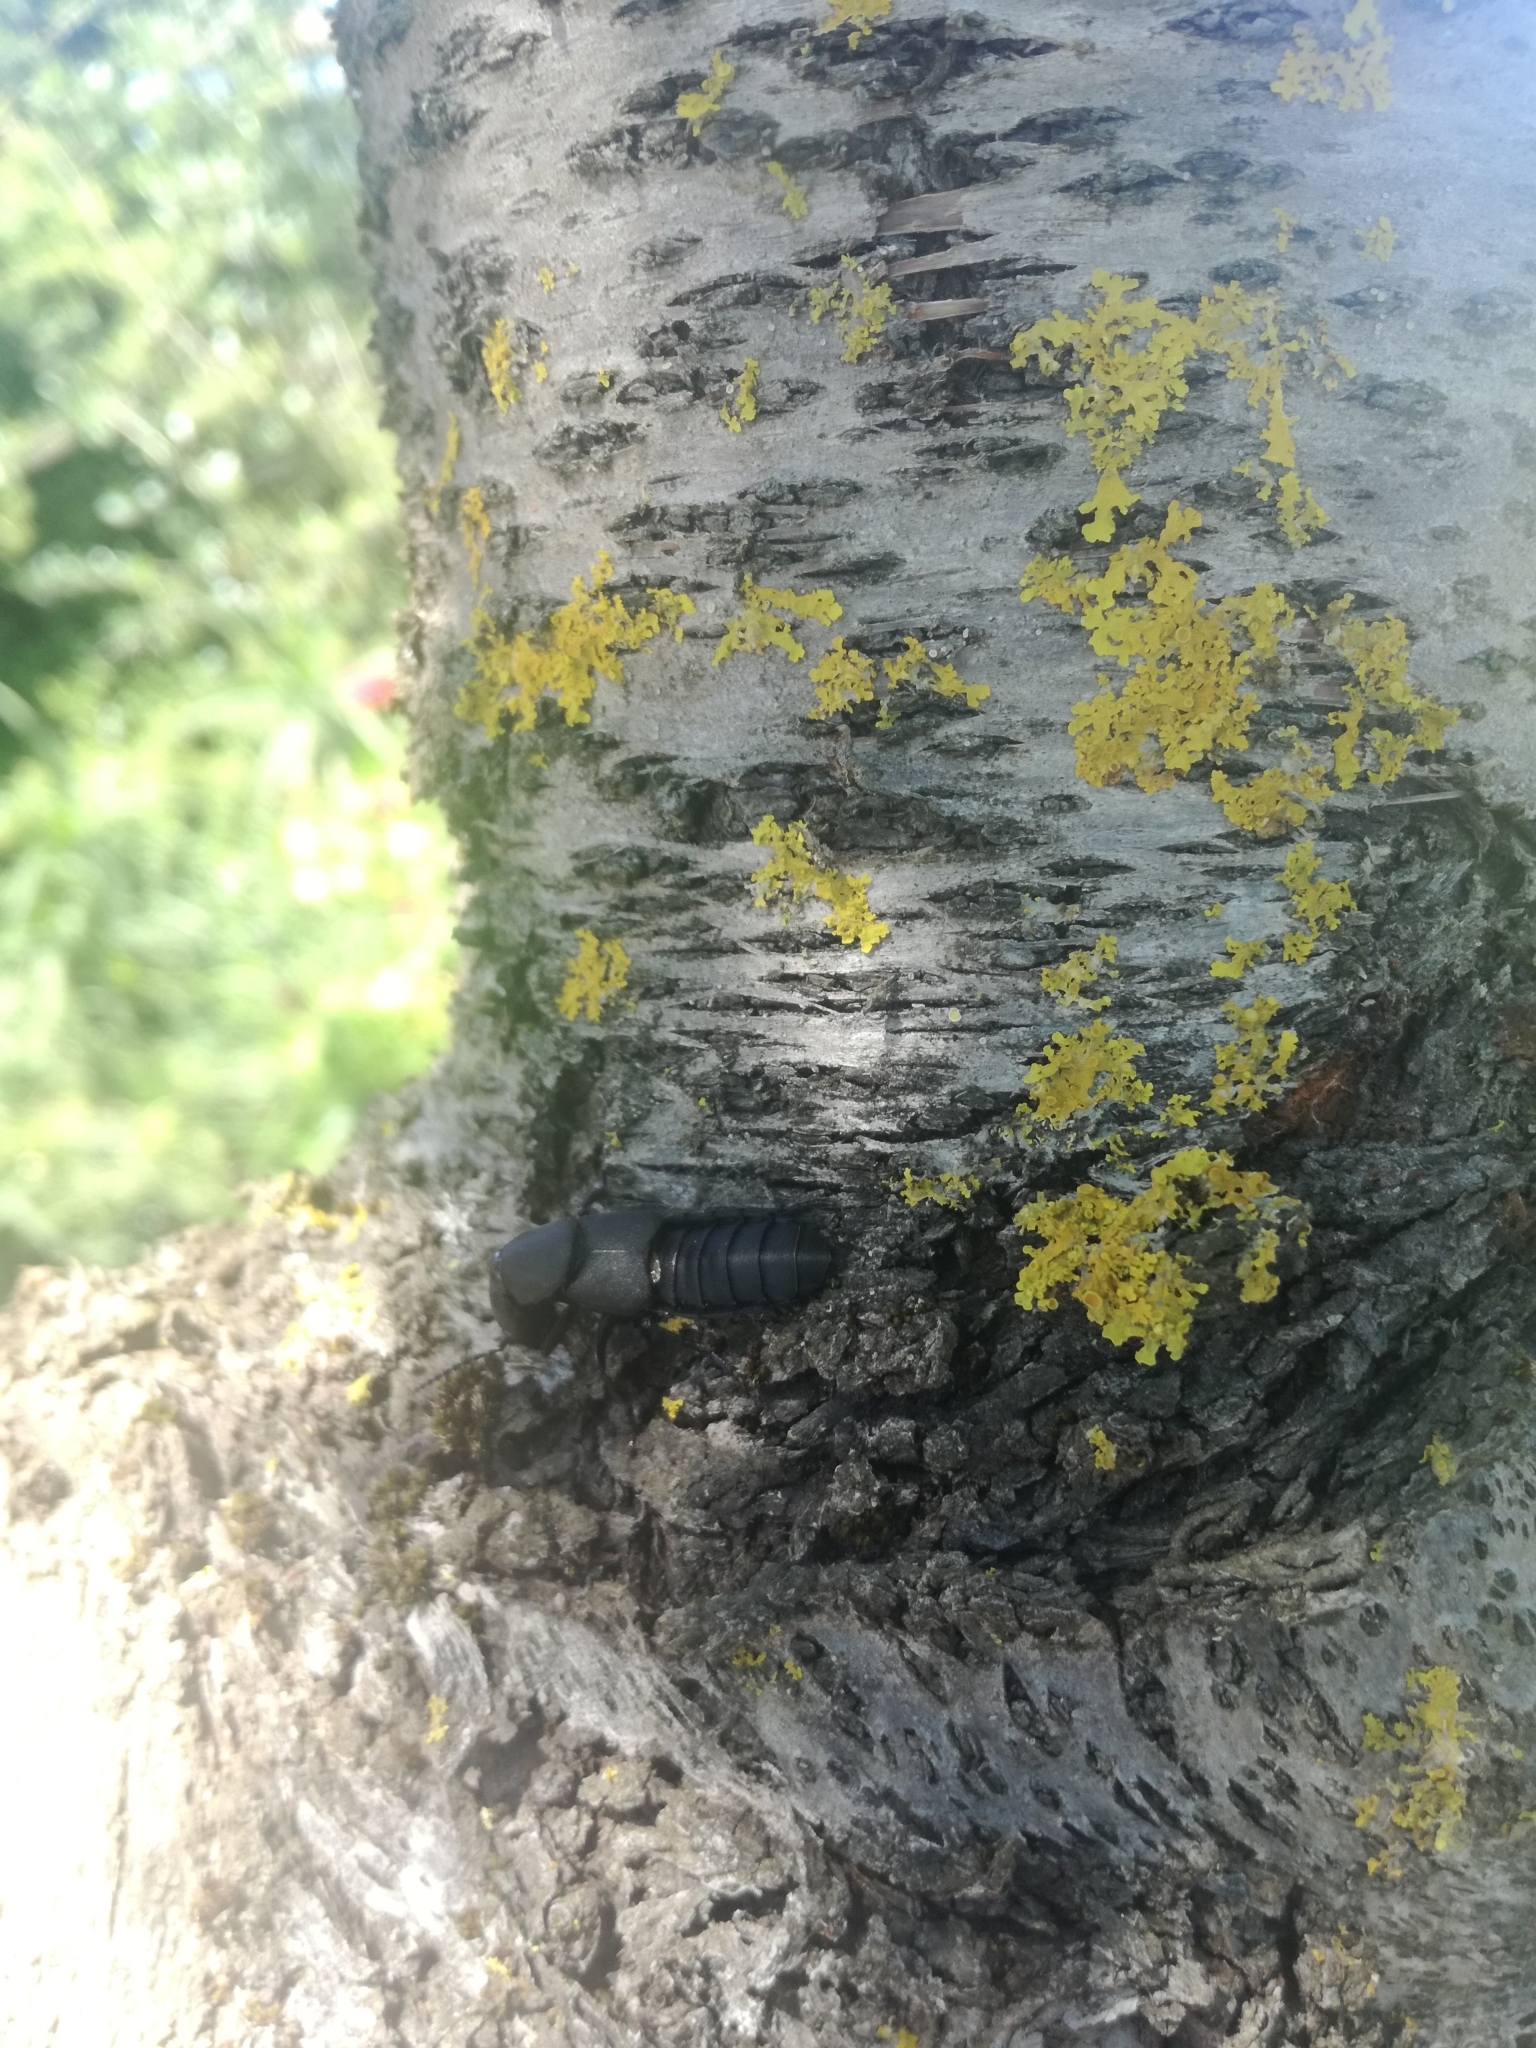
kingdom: Animalia
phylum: Arthropoda
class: Insecta
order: Coleoptera
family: Staphylinidae
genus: Ocypus
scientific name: Ocypus olens
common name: Devil's coach-horse
